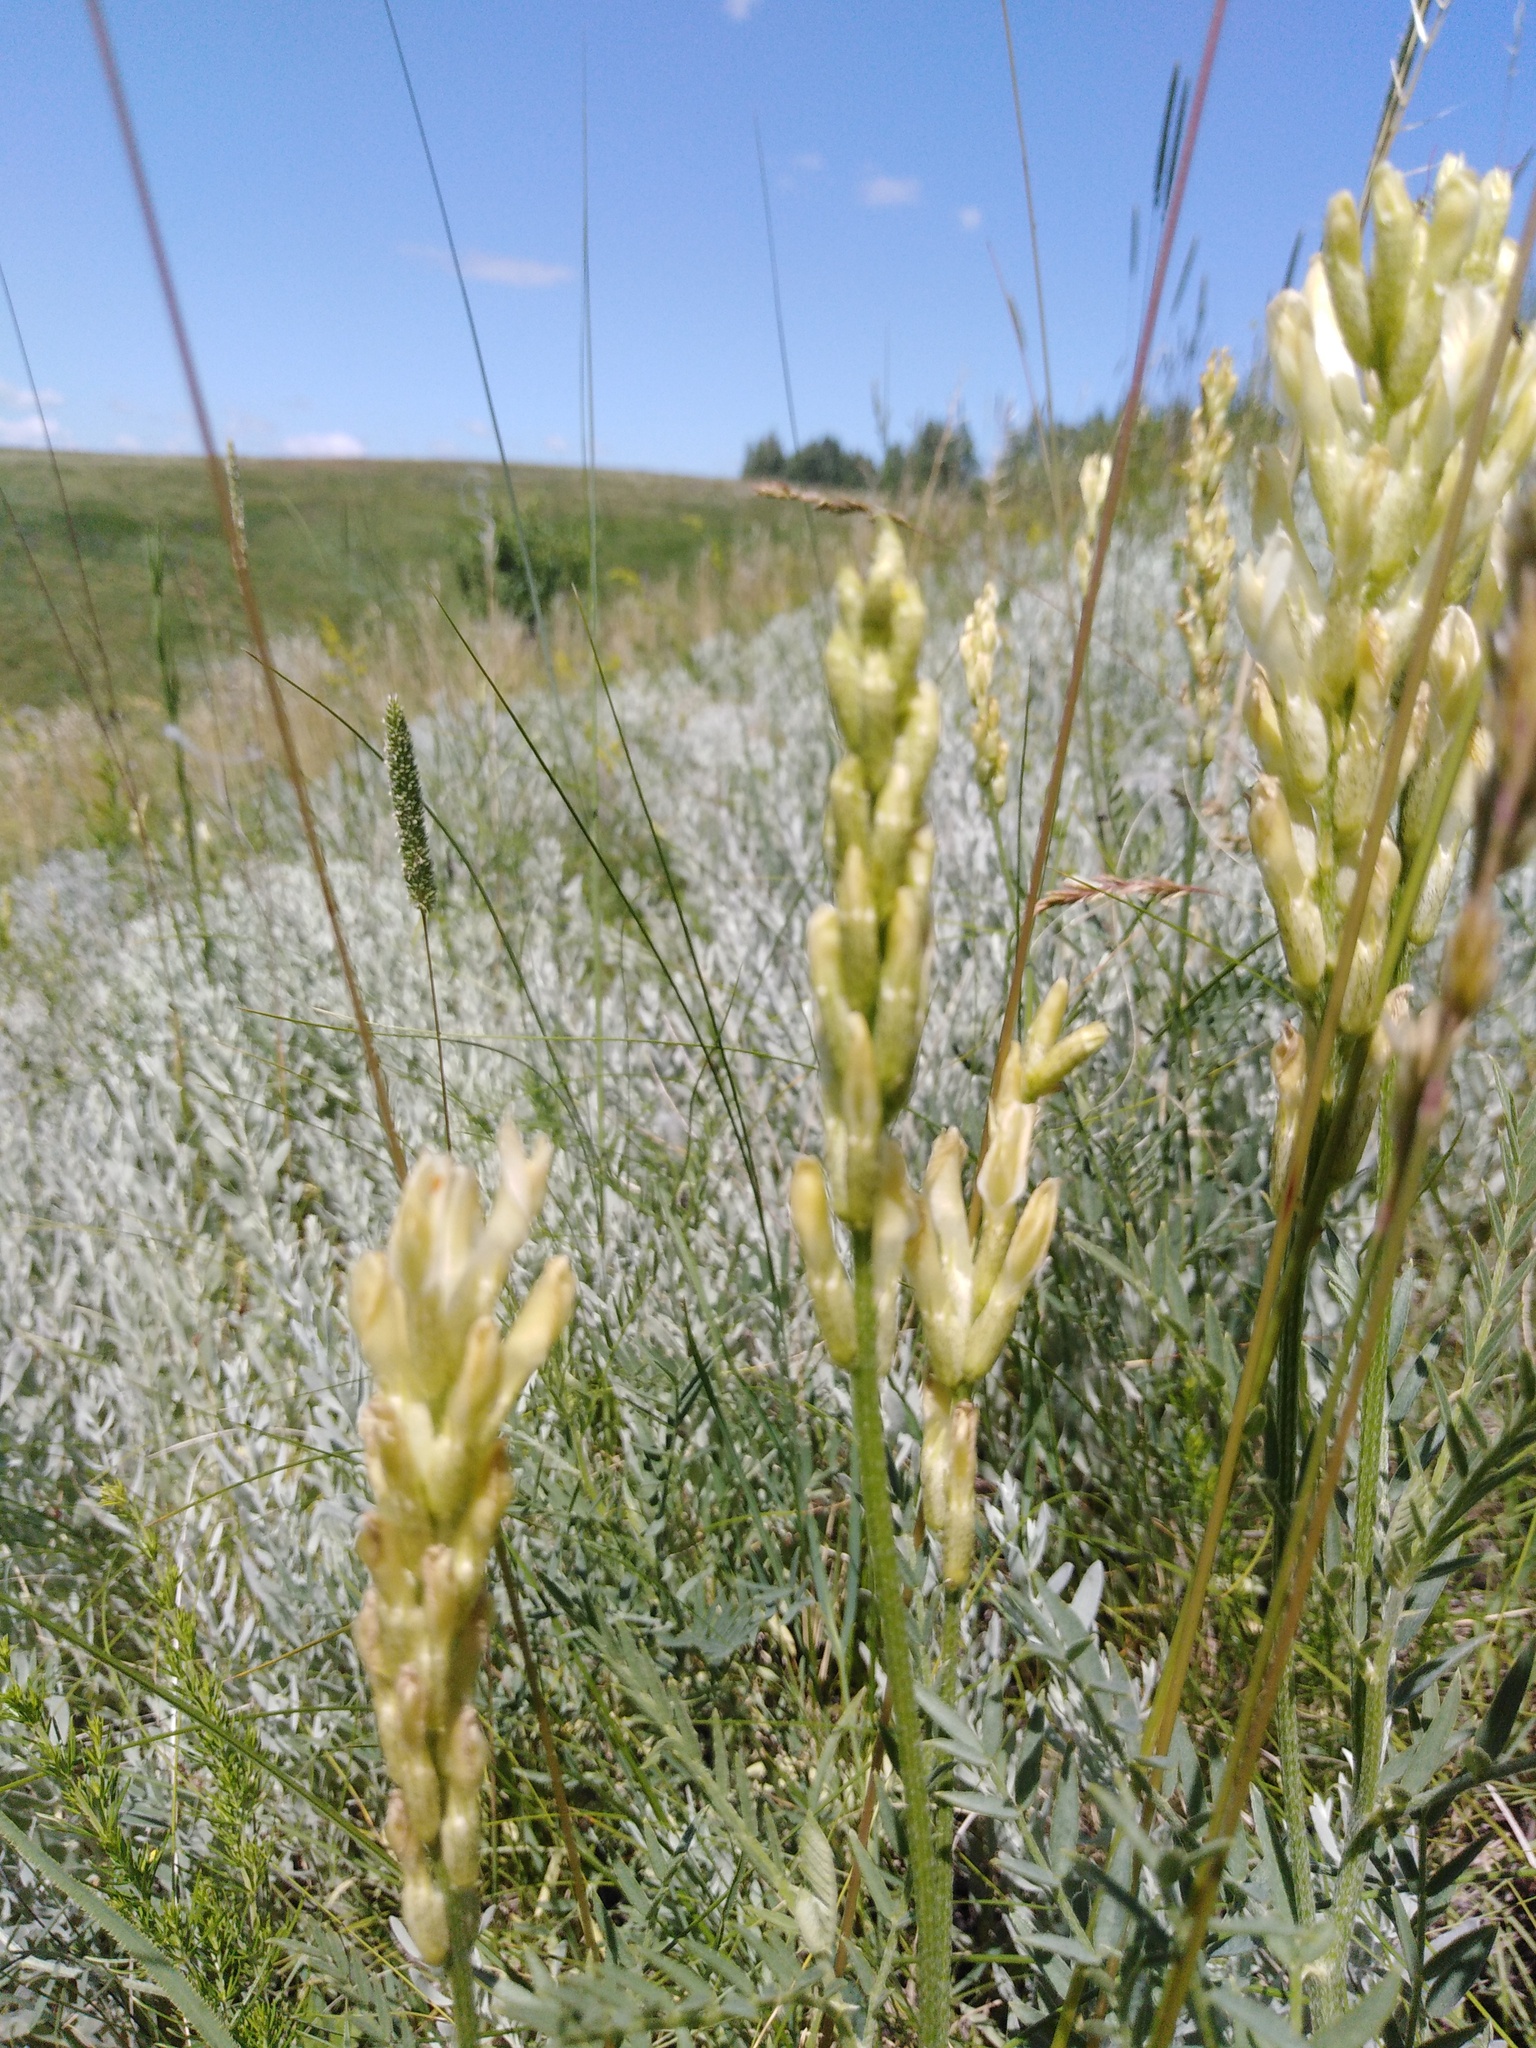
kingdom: Plantae
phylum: Tracheophyta
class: Magnoliopsida
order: Fabales
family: Fabaceae
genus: Astragalus
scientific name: Astragalus asper
